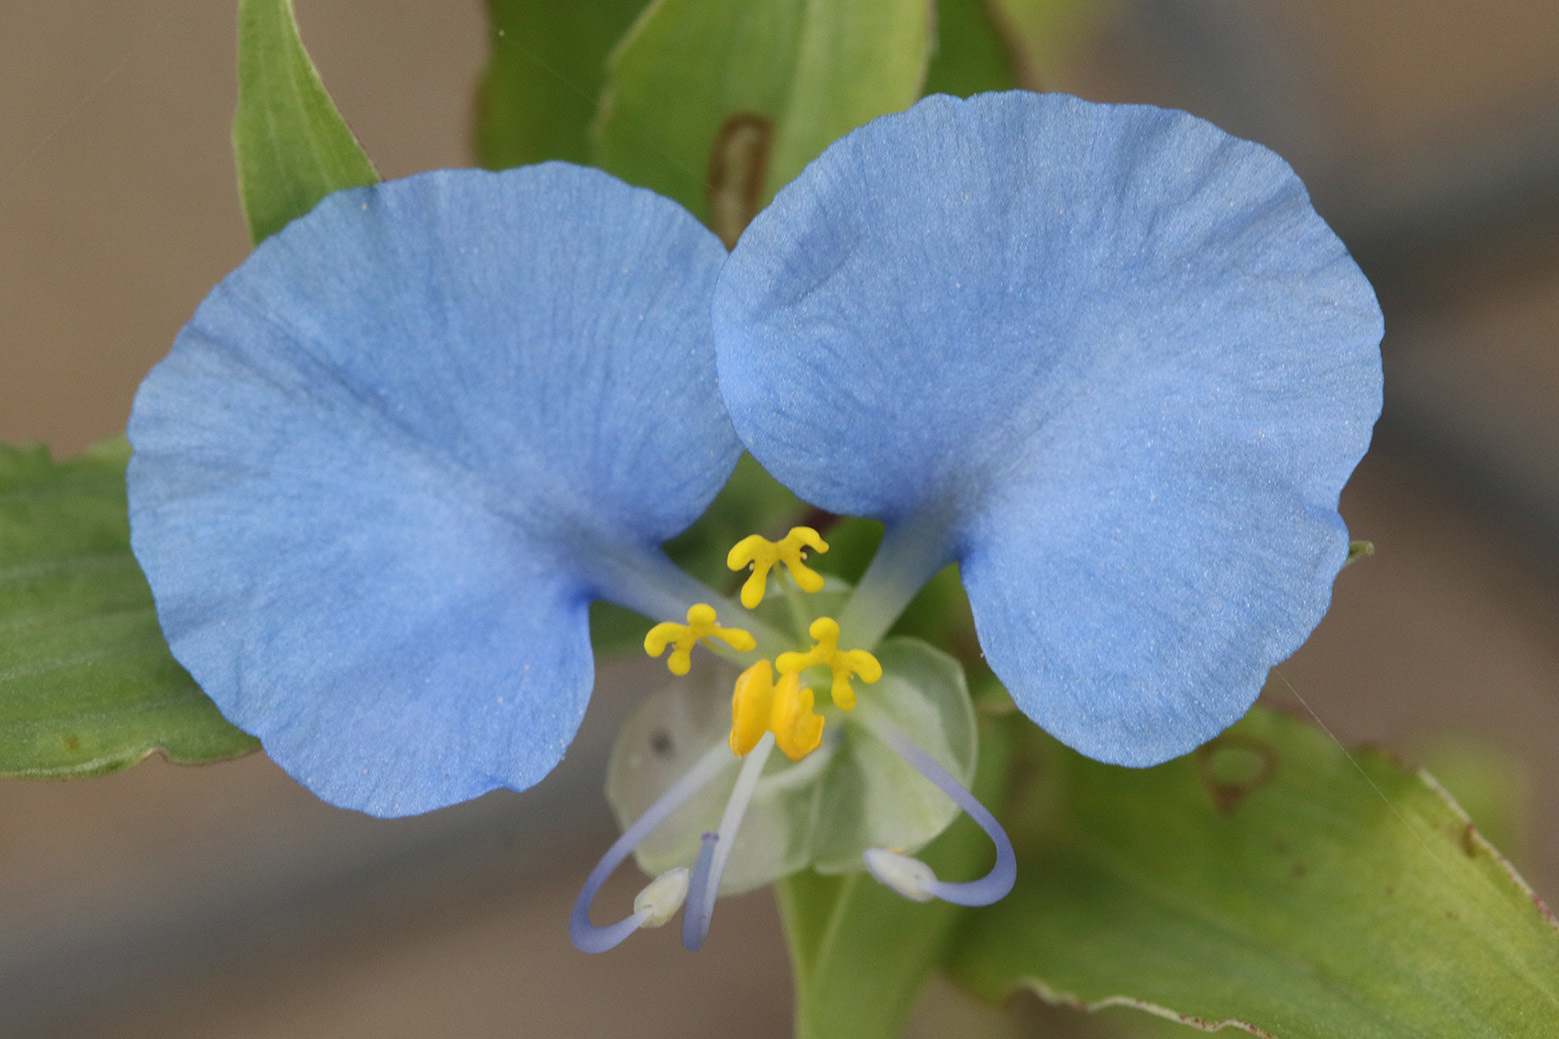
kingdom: Plantae
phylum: Tracheophyta
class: Liliopsida
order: Commelinales
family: Commelinaceae
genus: Commelina
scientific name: Commelina erecta
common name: Blousel blommetjie
